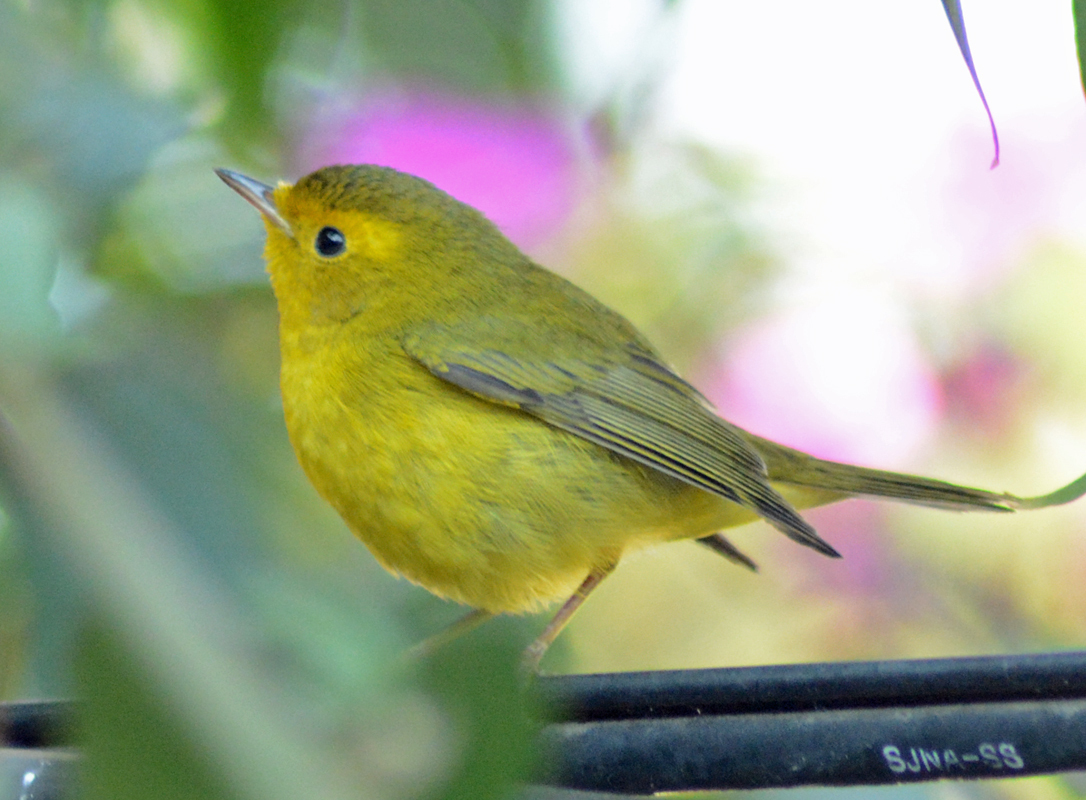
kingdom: Animalia
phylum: Chordata
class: Aves
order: Passeriformes
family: Parulidae
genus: Cardellina
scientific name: Cardellina pusilla
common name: Wilson's warbler
